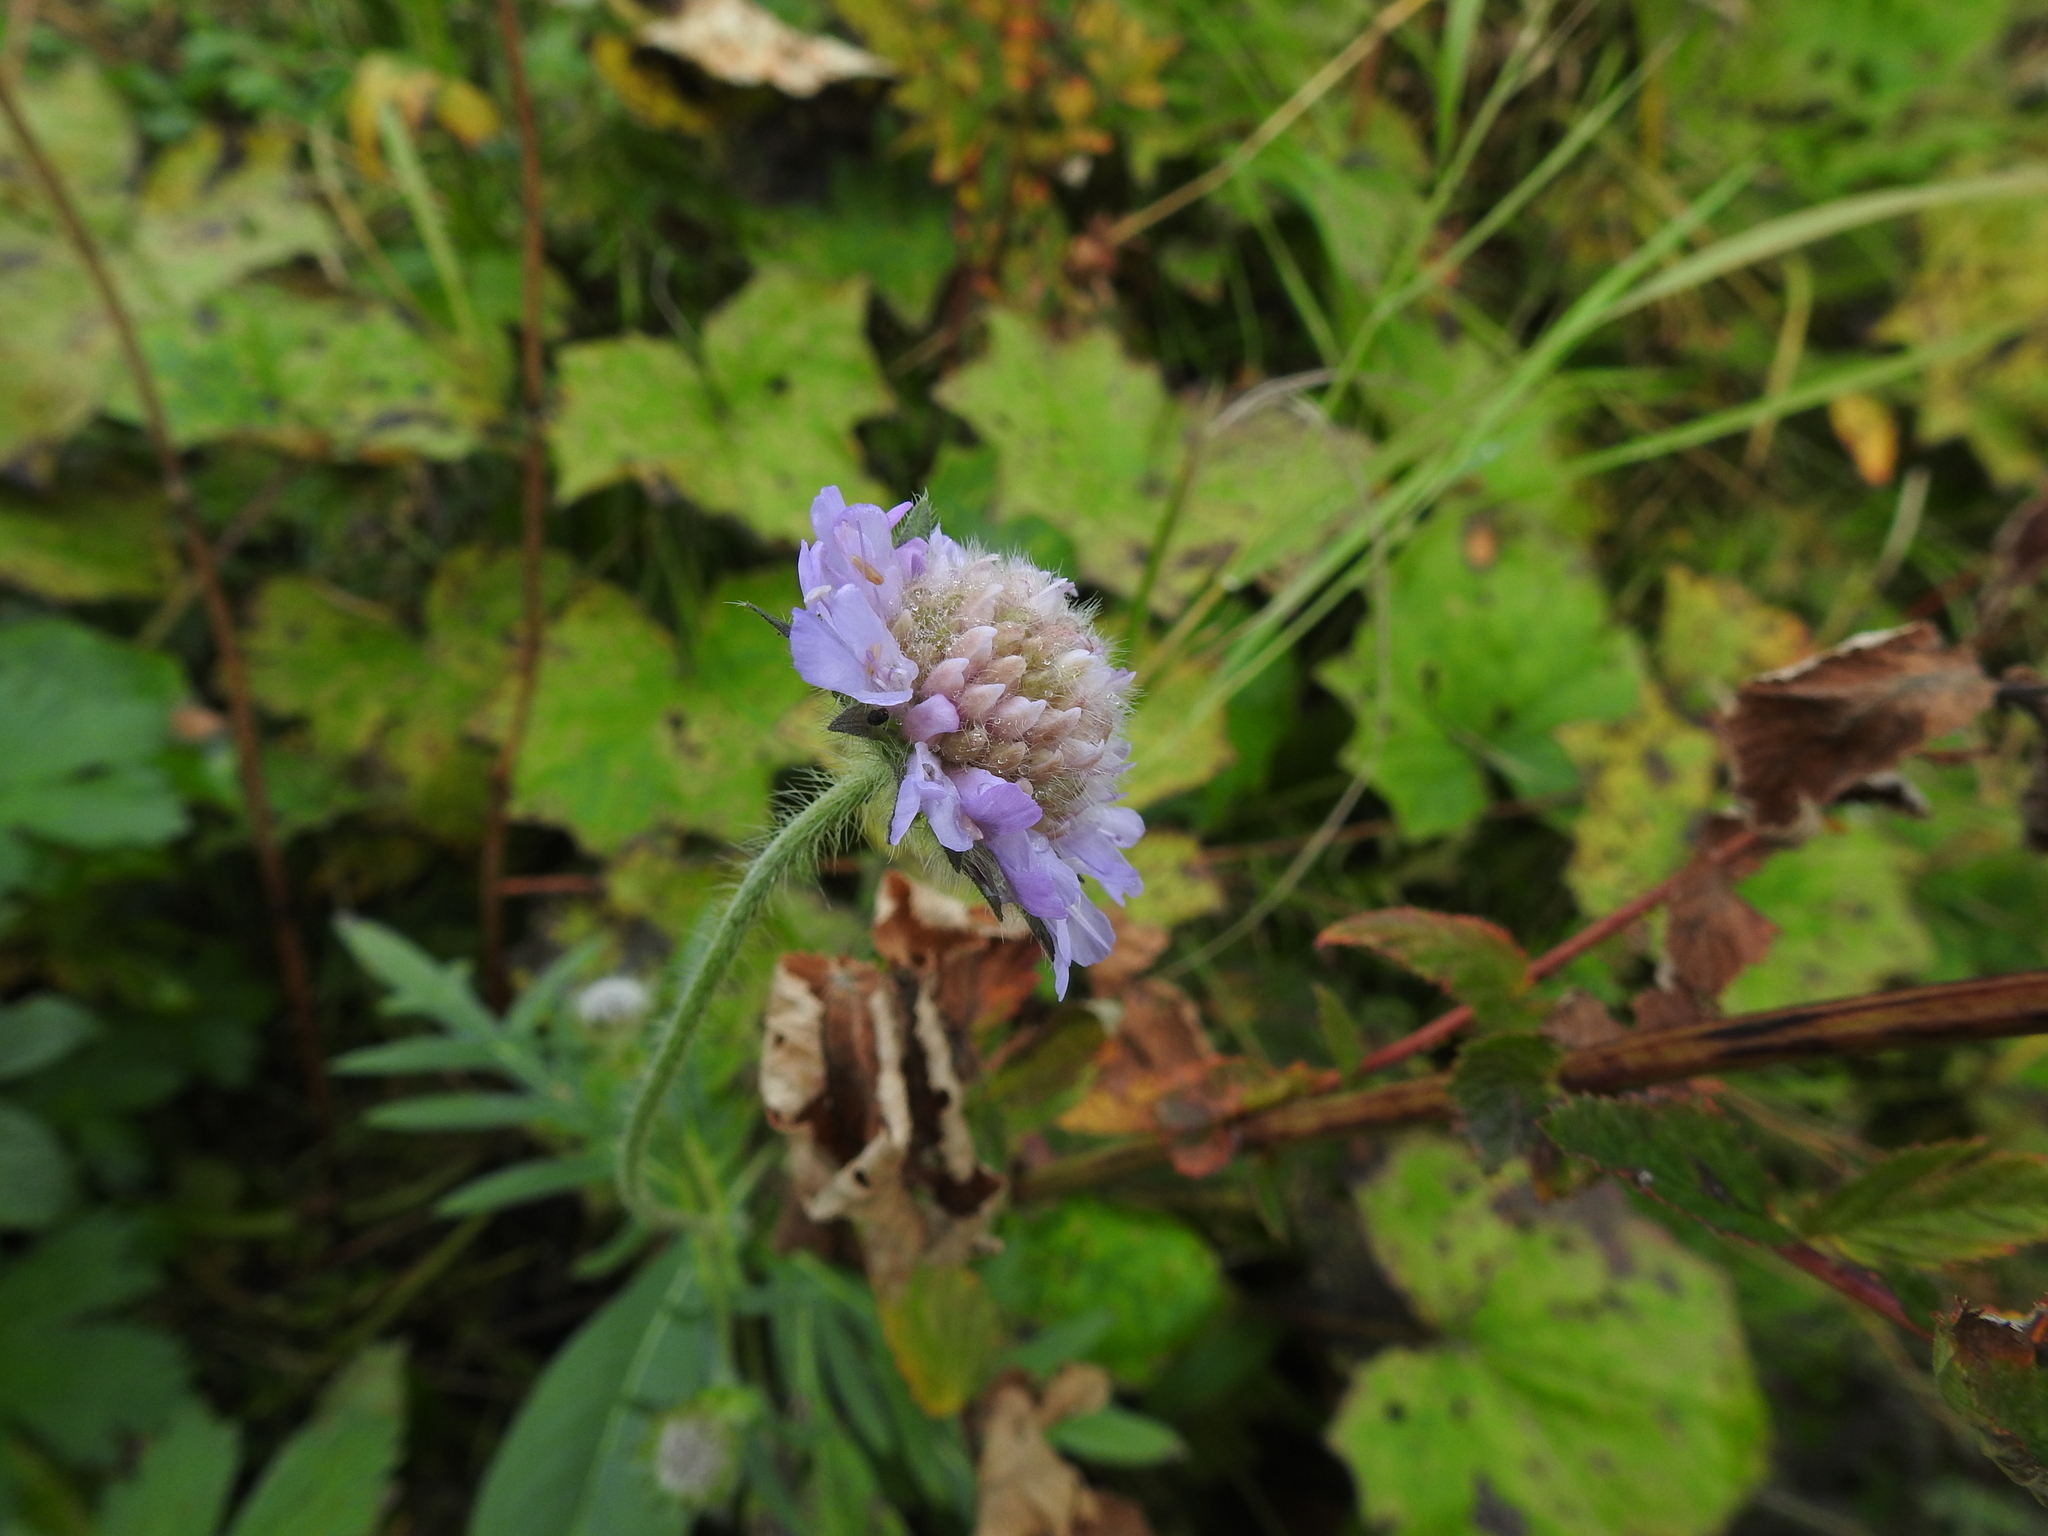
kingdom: Plantae
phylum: Tracheophyta
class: Magnoliopsida
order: Dipsacales
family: Caprifoliaceae
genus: Knautia
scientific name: Knautia arvensis
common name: Field scabiosa
